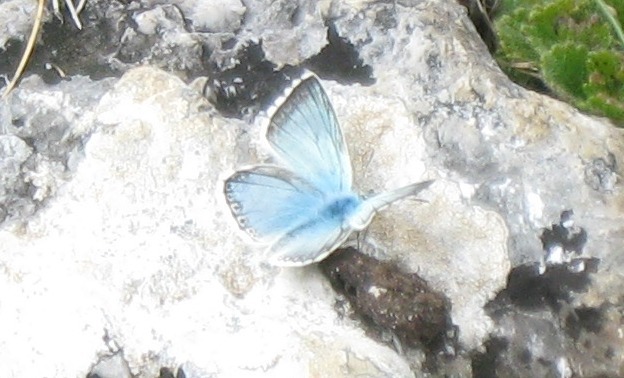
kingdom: Animalia
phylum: Arthropoda
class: Insecta
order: Lepidoptera
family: Lycaenidae
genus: Lysandra
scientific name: Lysandra coridon
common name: Chalkhill blue
